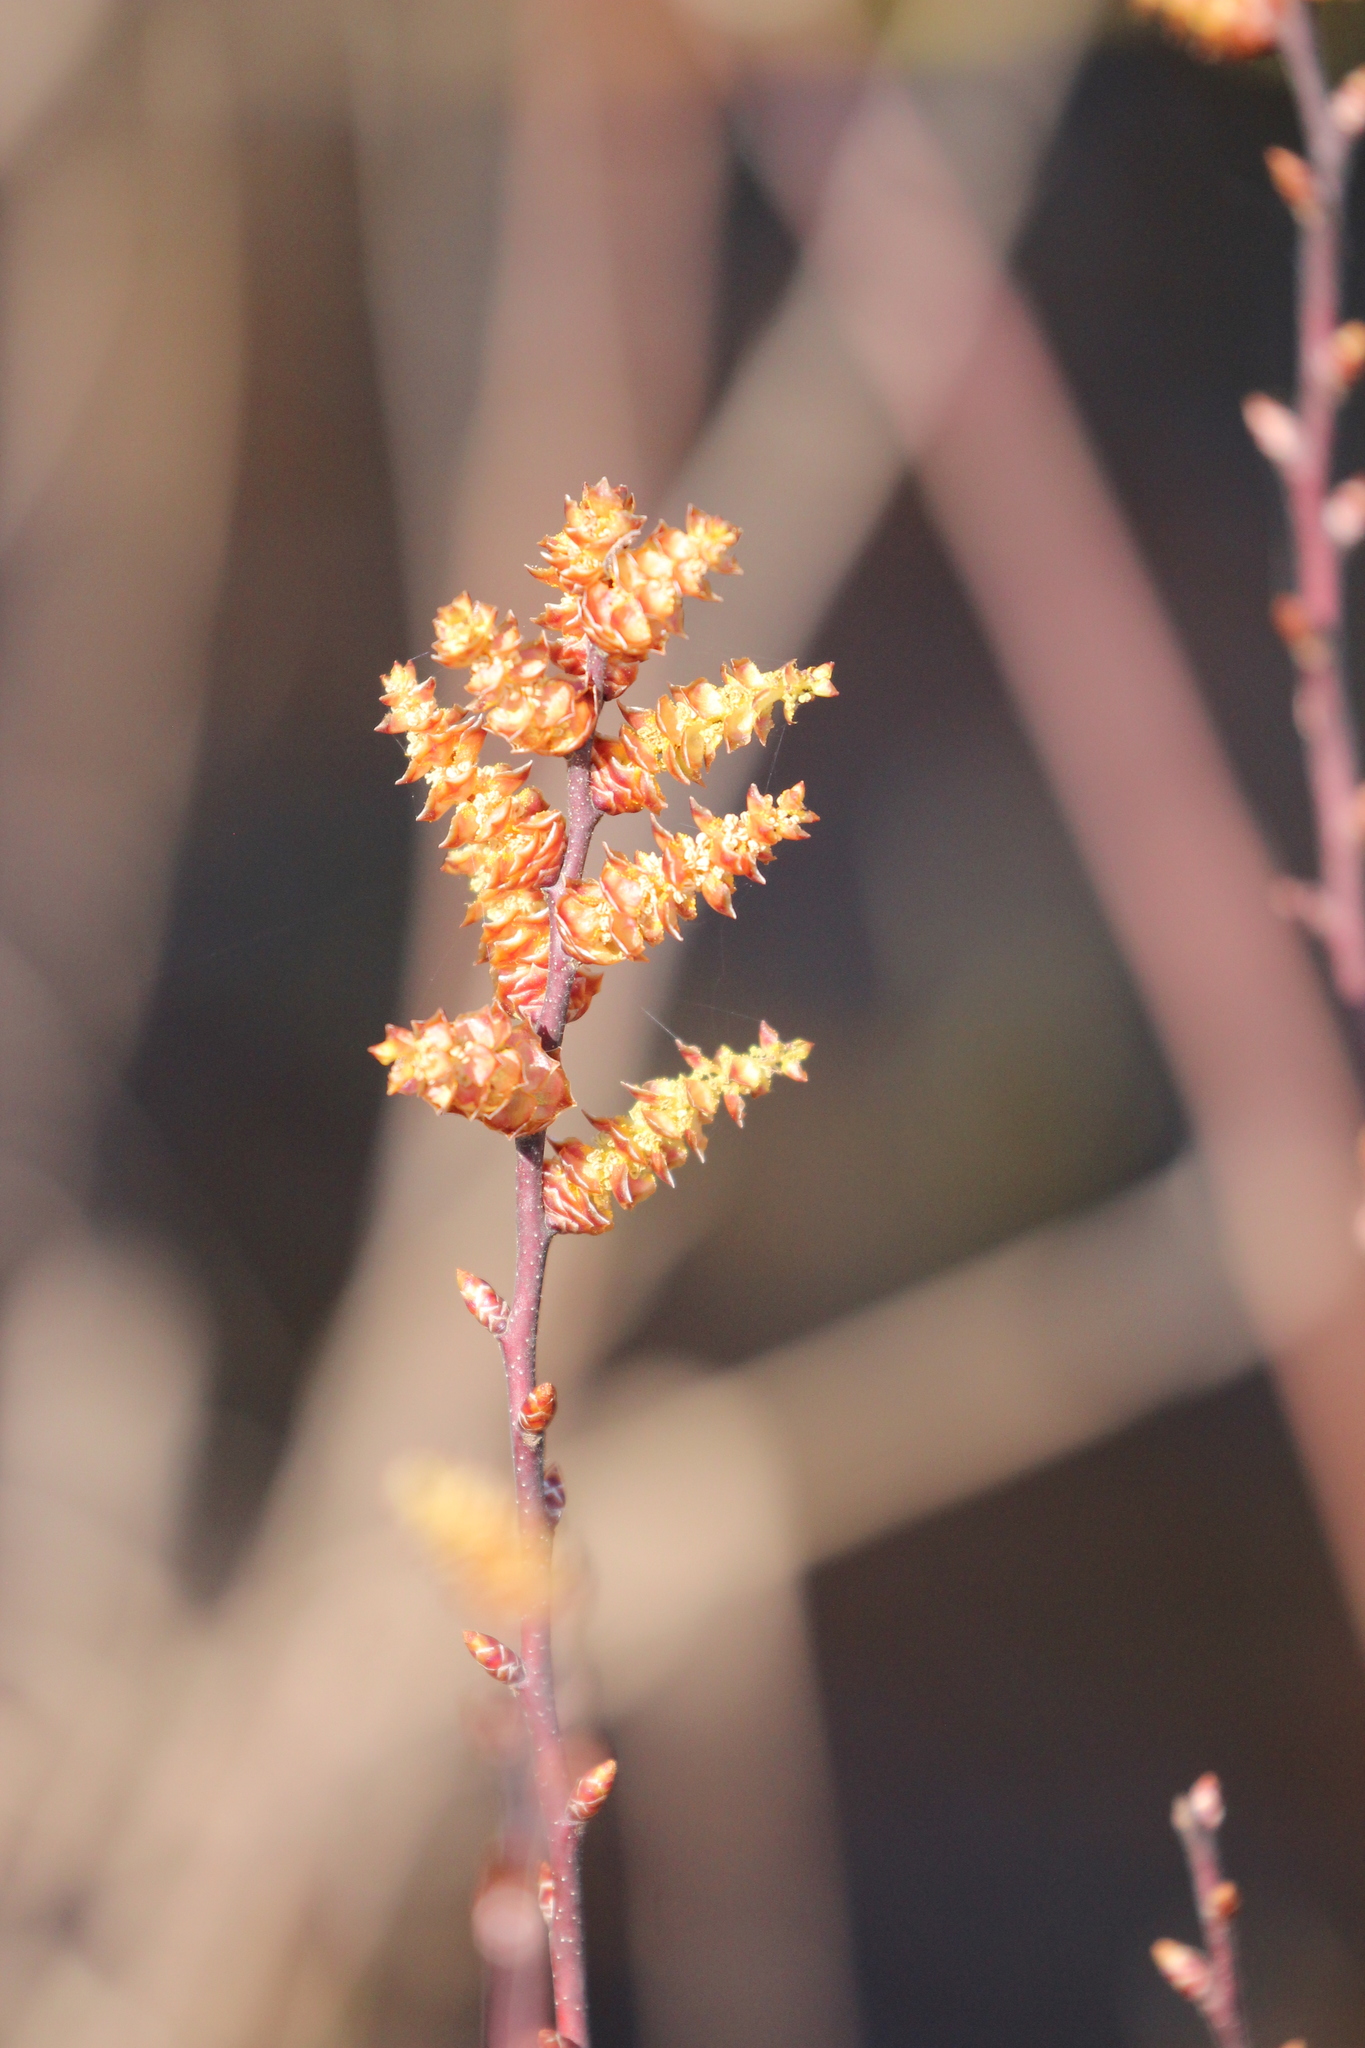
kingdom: Plantae
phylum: Tracheophyta
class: Magnoliopsida
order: Fagales
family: Myricaceae
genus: Myrica
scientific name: Myrica gale
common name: Sweet gale
